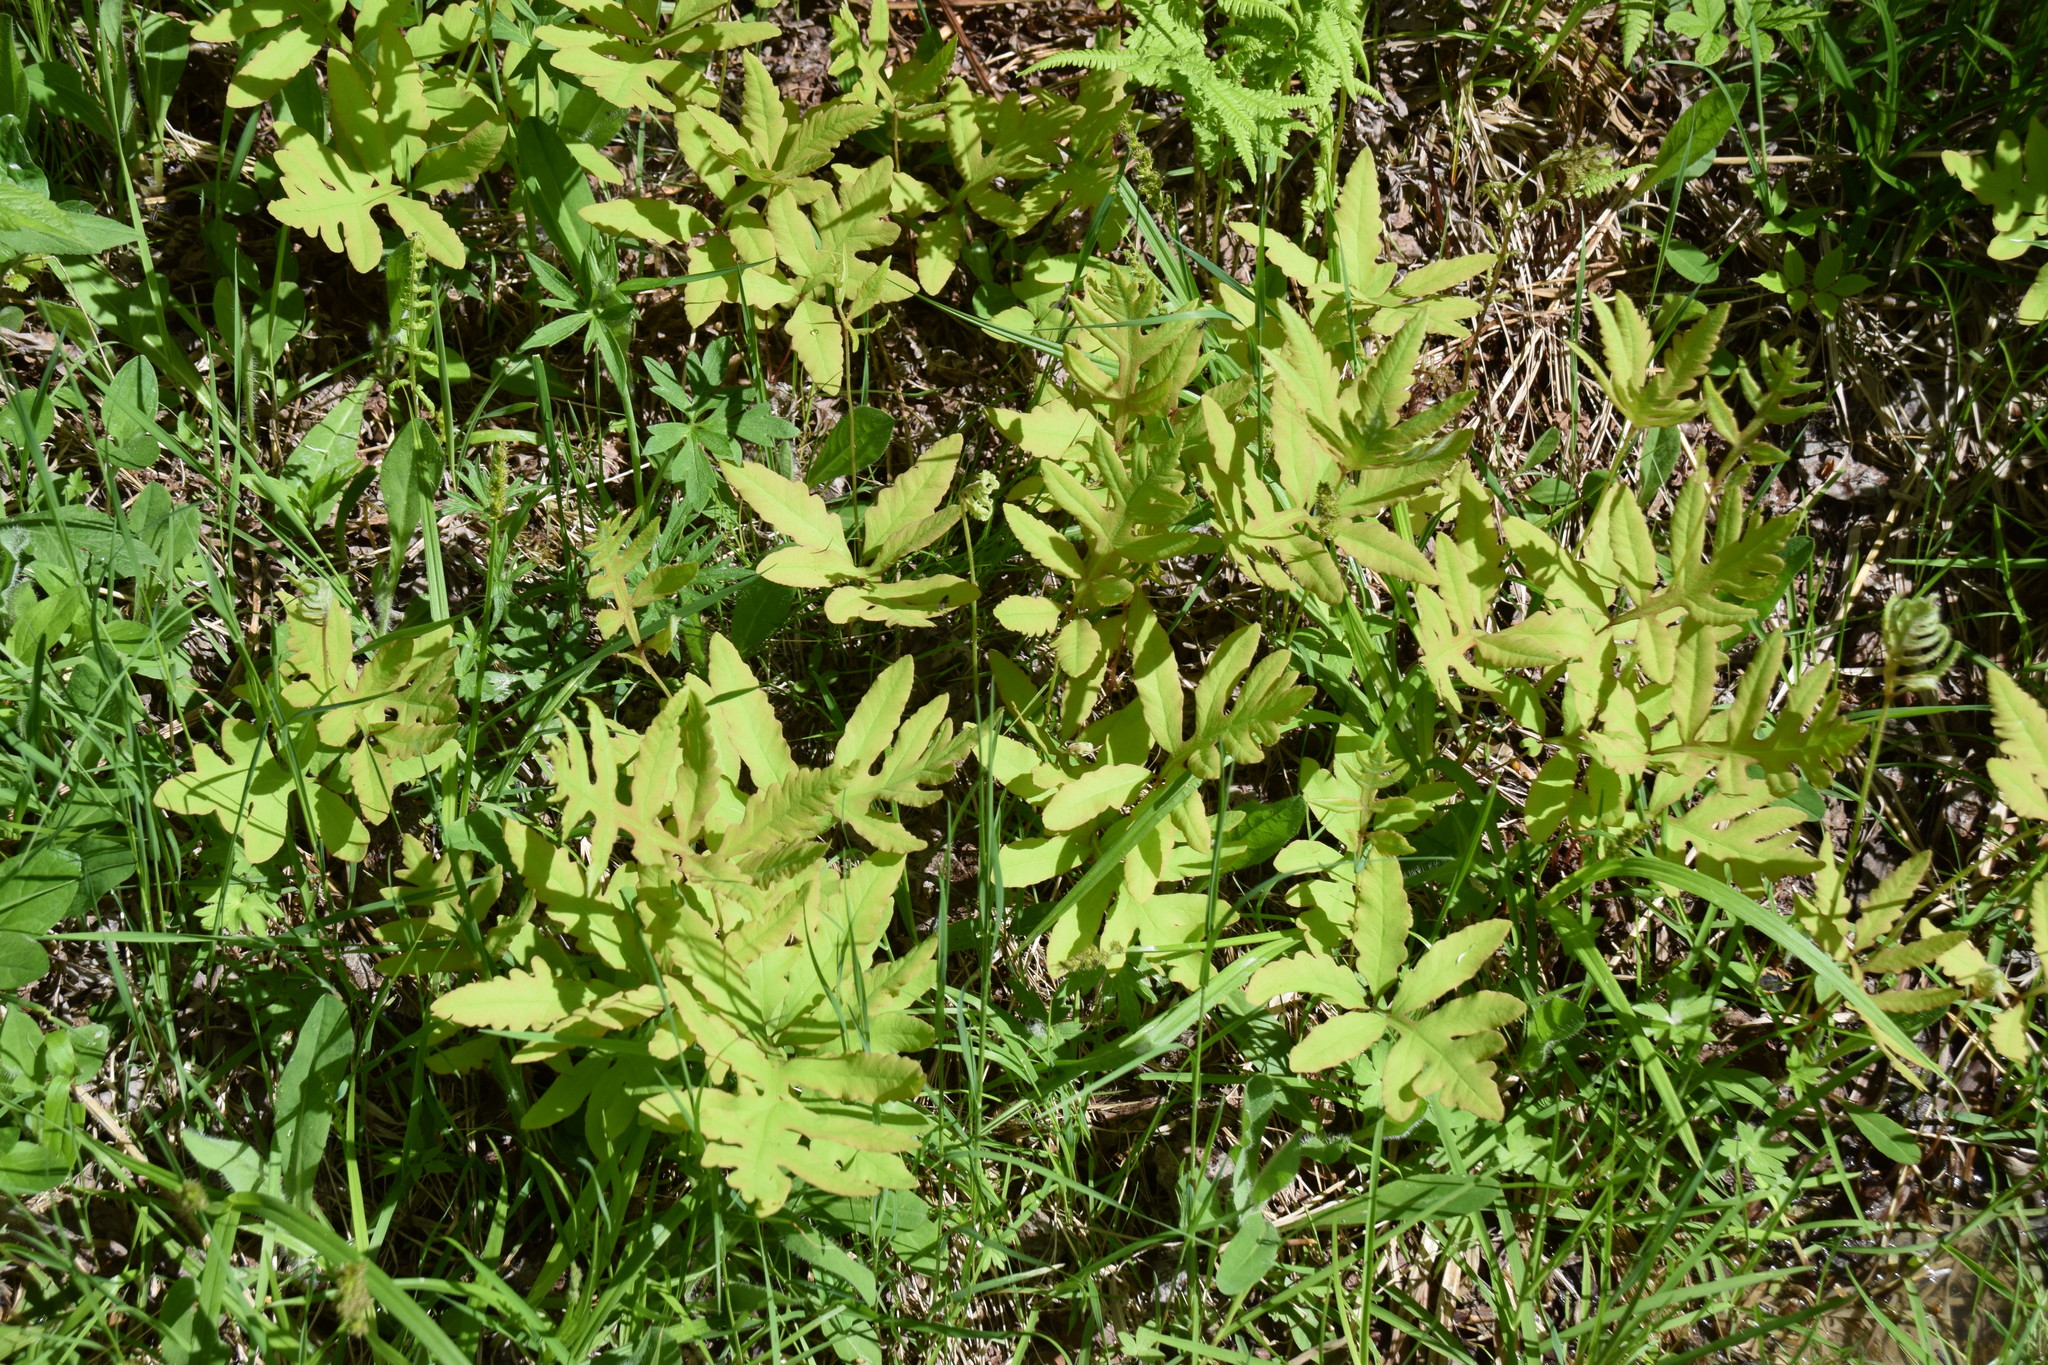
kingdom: Plantae
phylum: Tracheophyta
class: Polypodiopsida
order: Polypodiales
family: Onocleaceae
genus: Onoclea
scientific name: Onoclea sensibilis
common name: Sensitive fern
